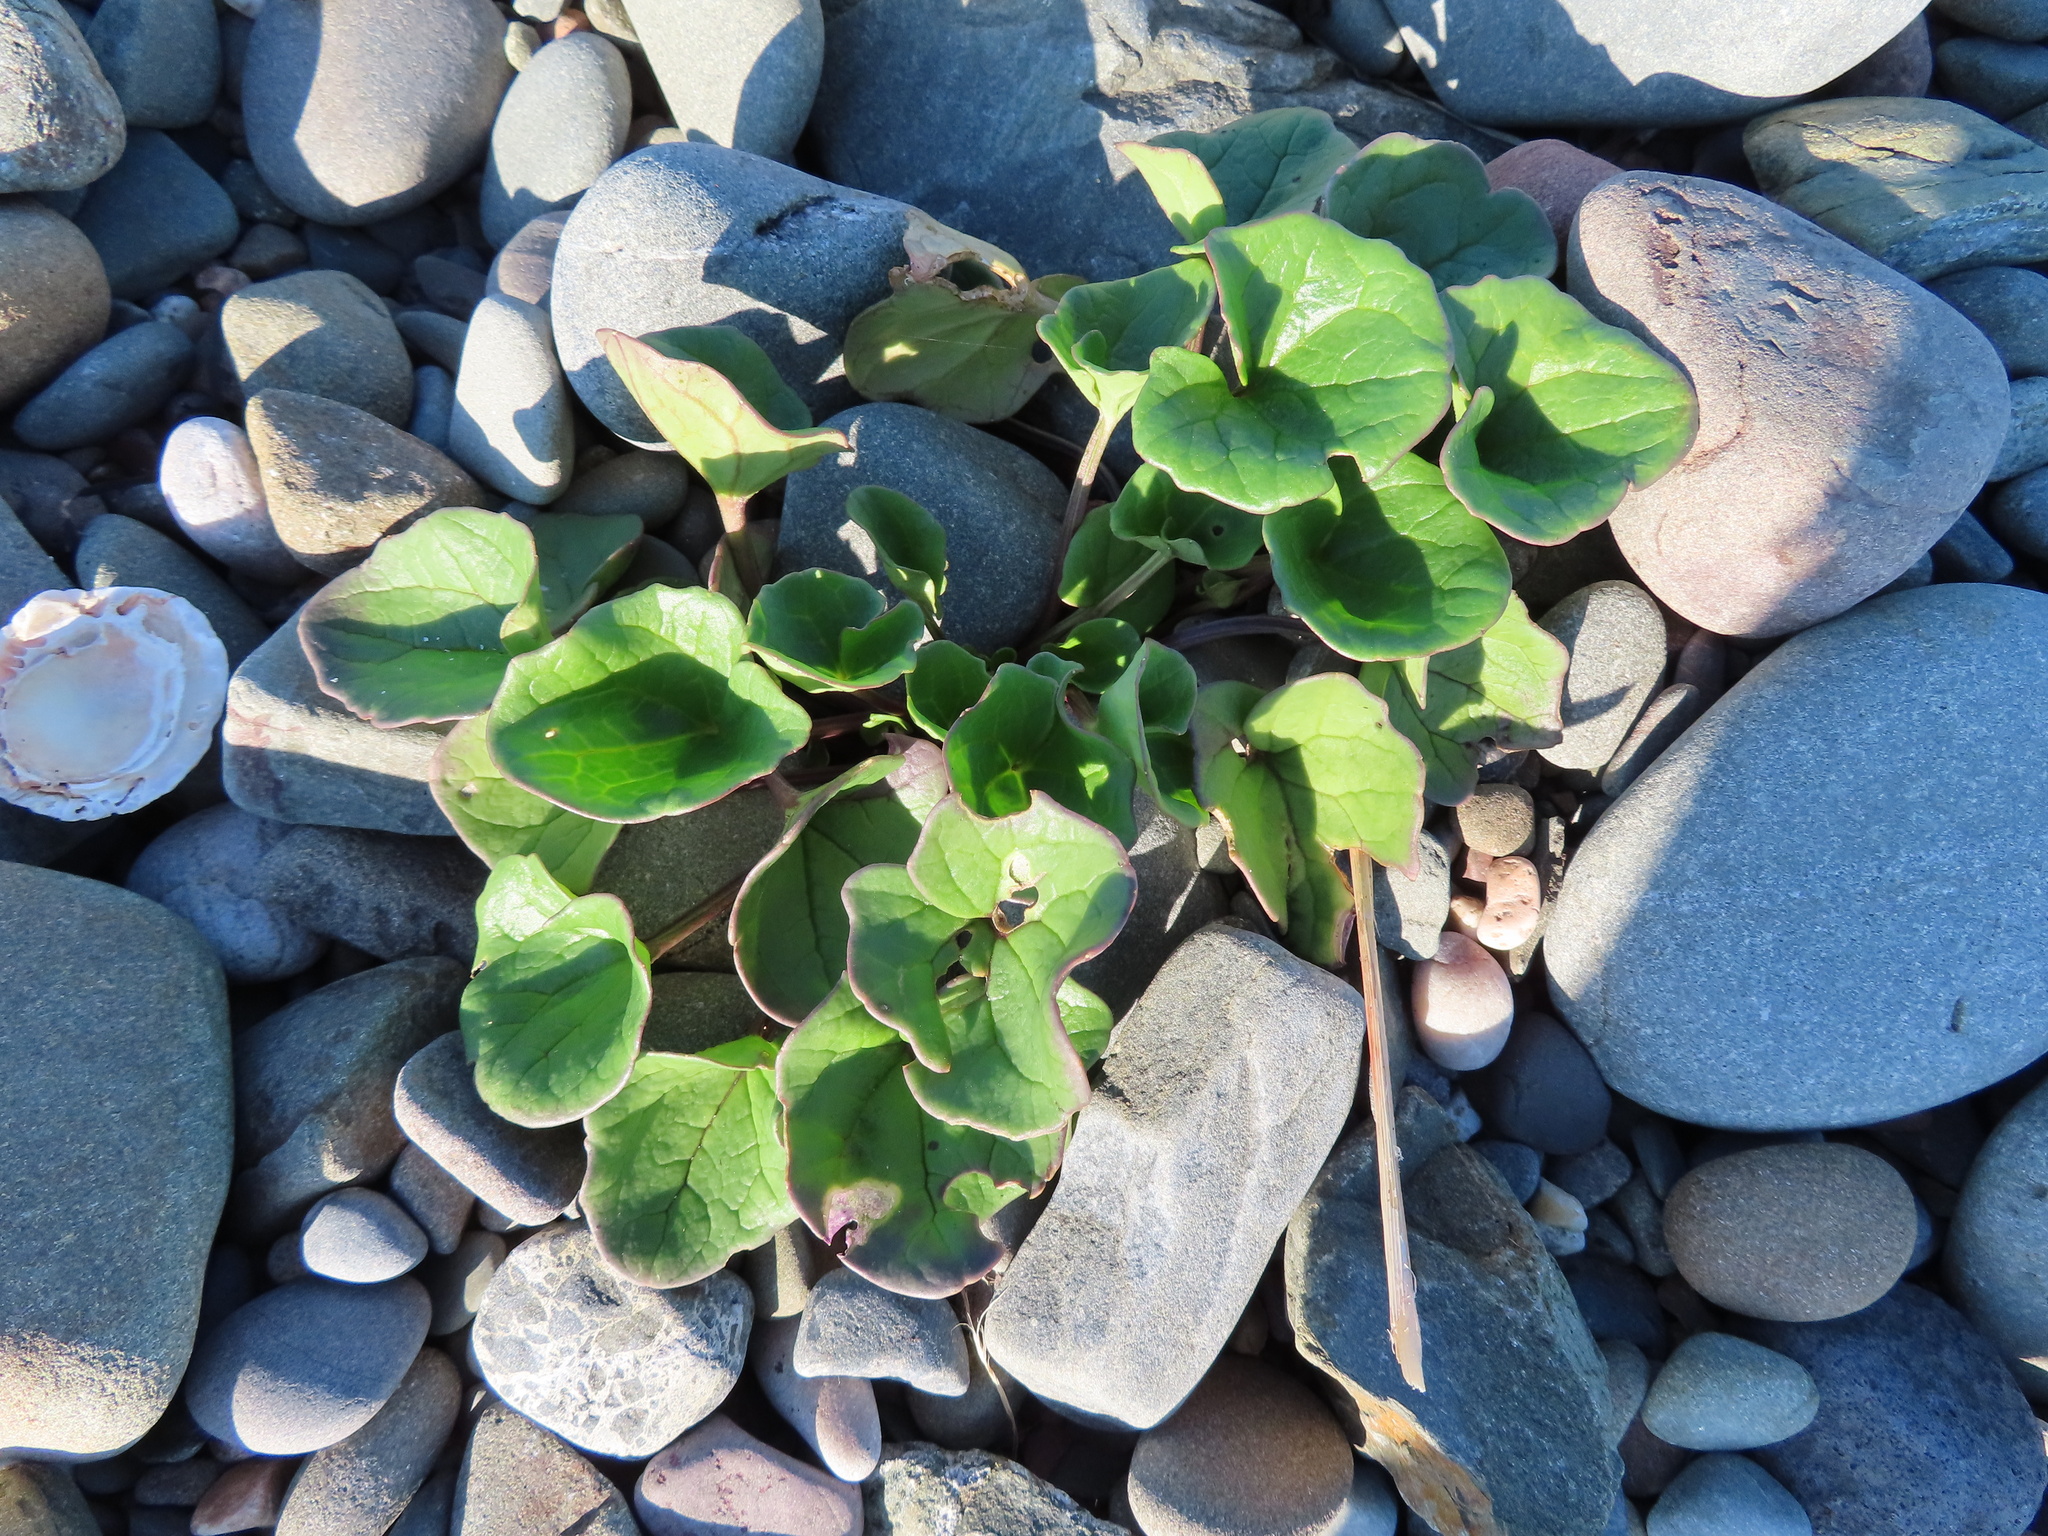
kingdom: Plantae
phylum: Tracheophyta
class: Magnoliopsida
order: Solanales
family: Convolvulaceae
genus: Calystegia
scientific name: Calystegia soldanella
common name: Sea bindweed
